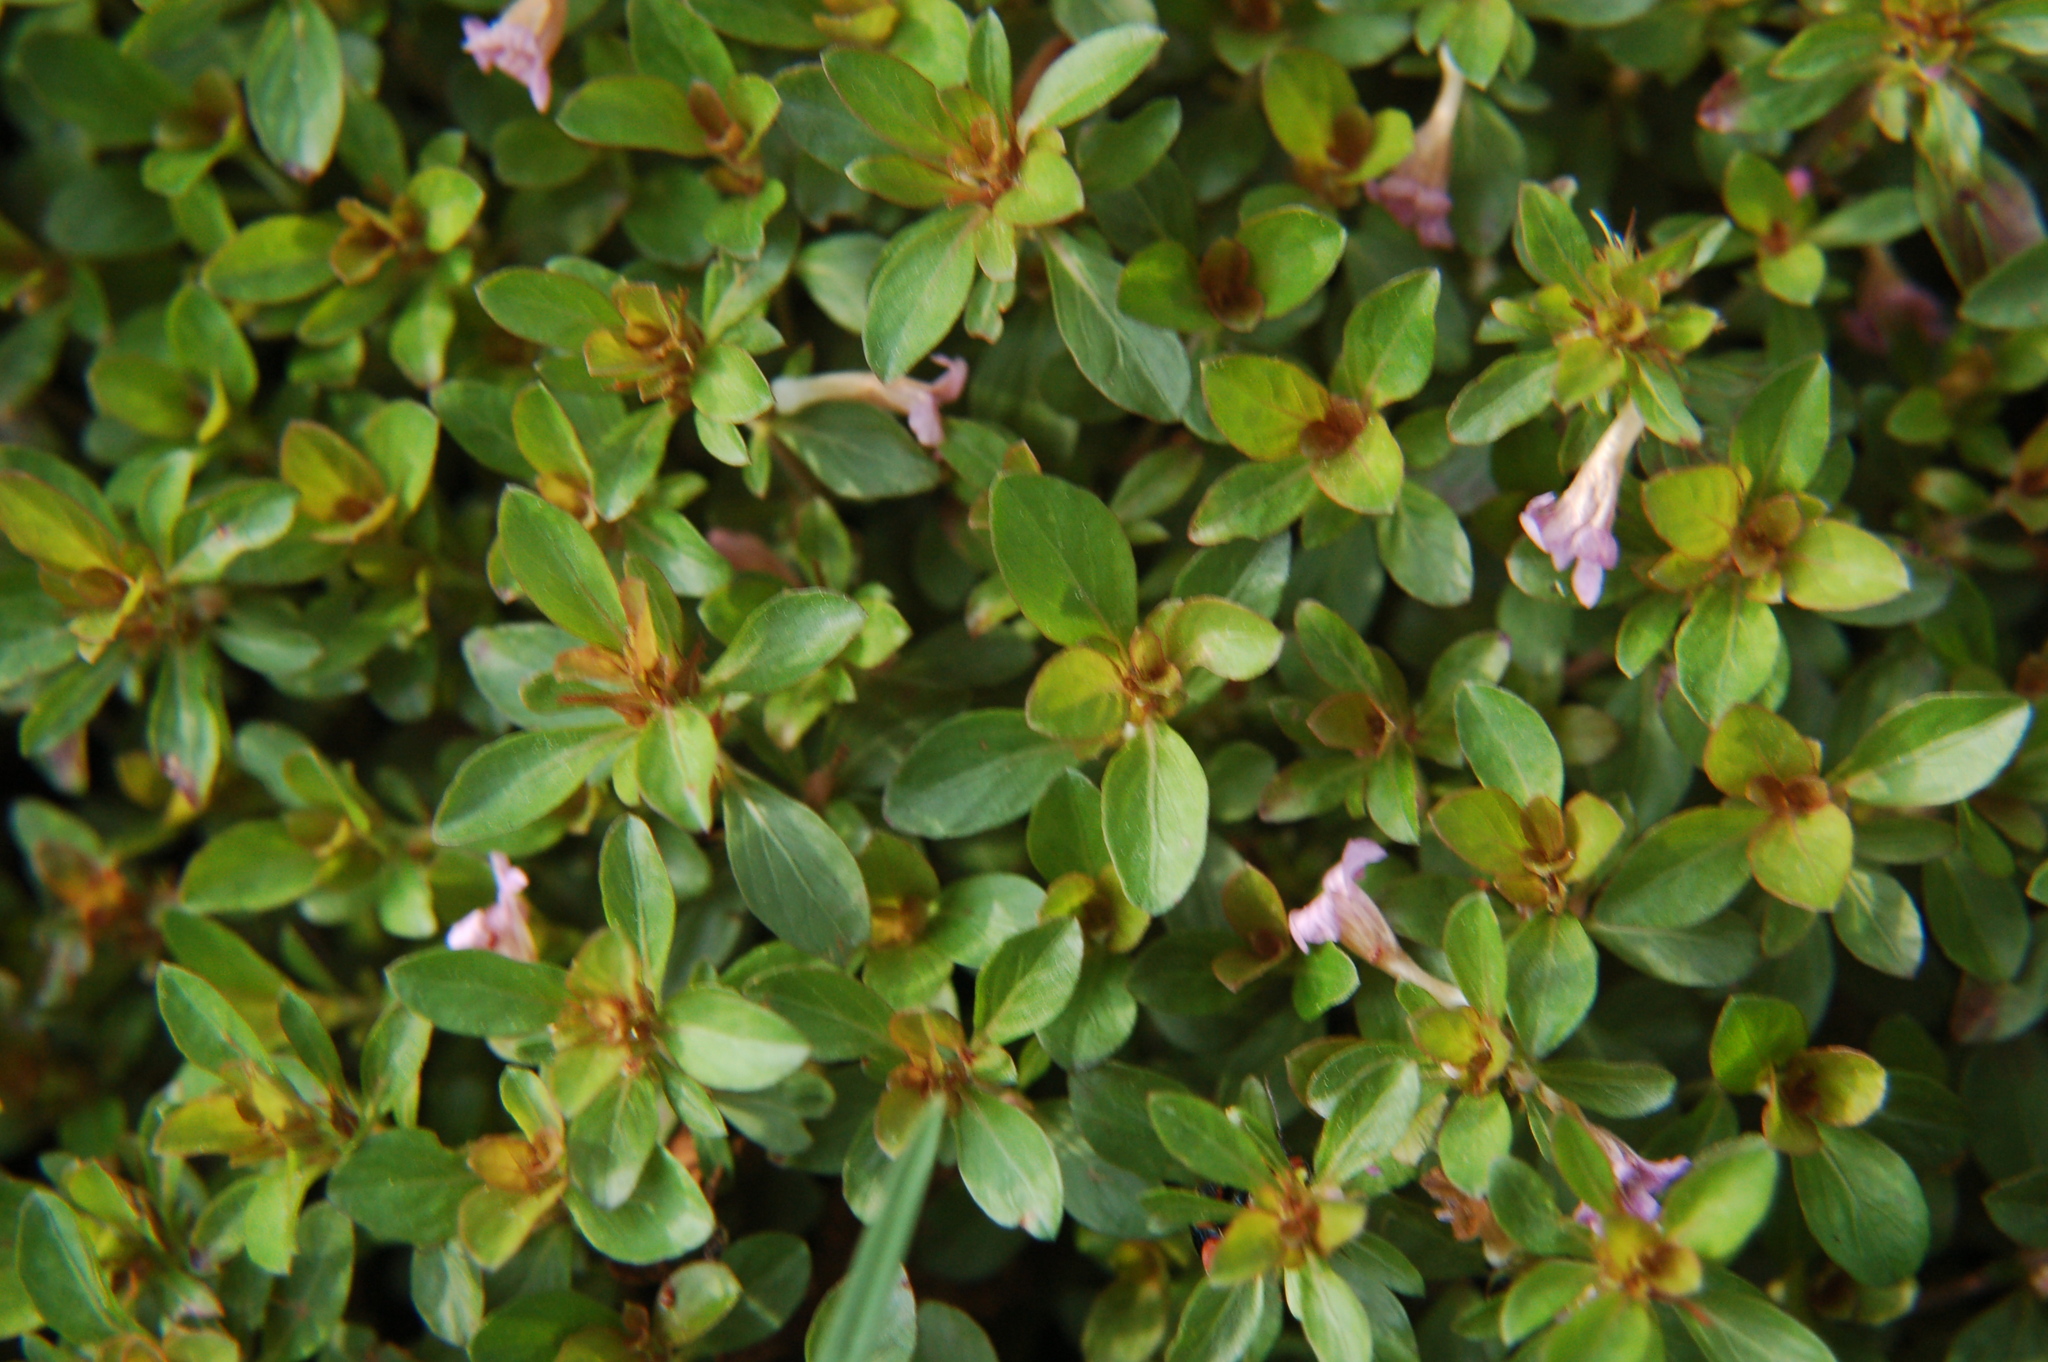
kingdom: Plantae
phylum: Tracheophyta
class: Magnoliopsida
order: Lamiales
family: Acanthaceae
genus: Dyschoriste
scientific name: Dyschoriste capitata
